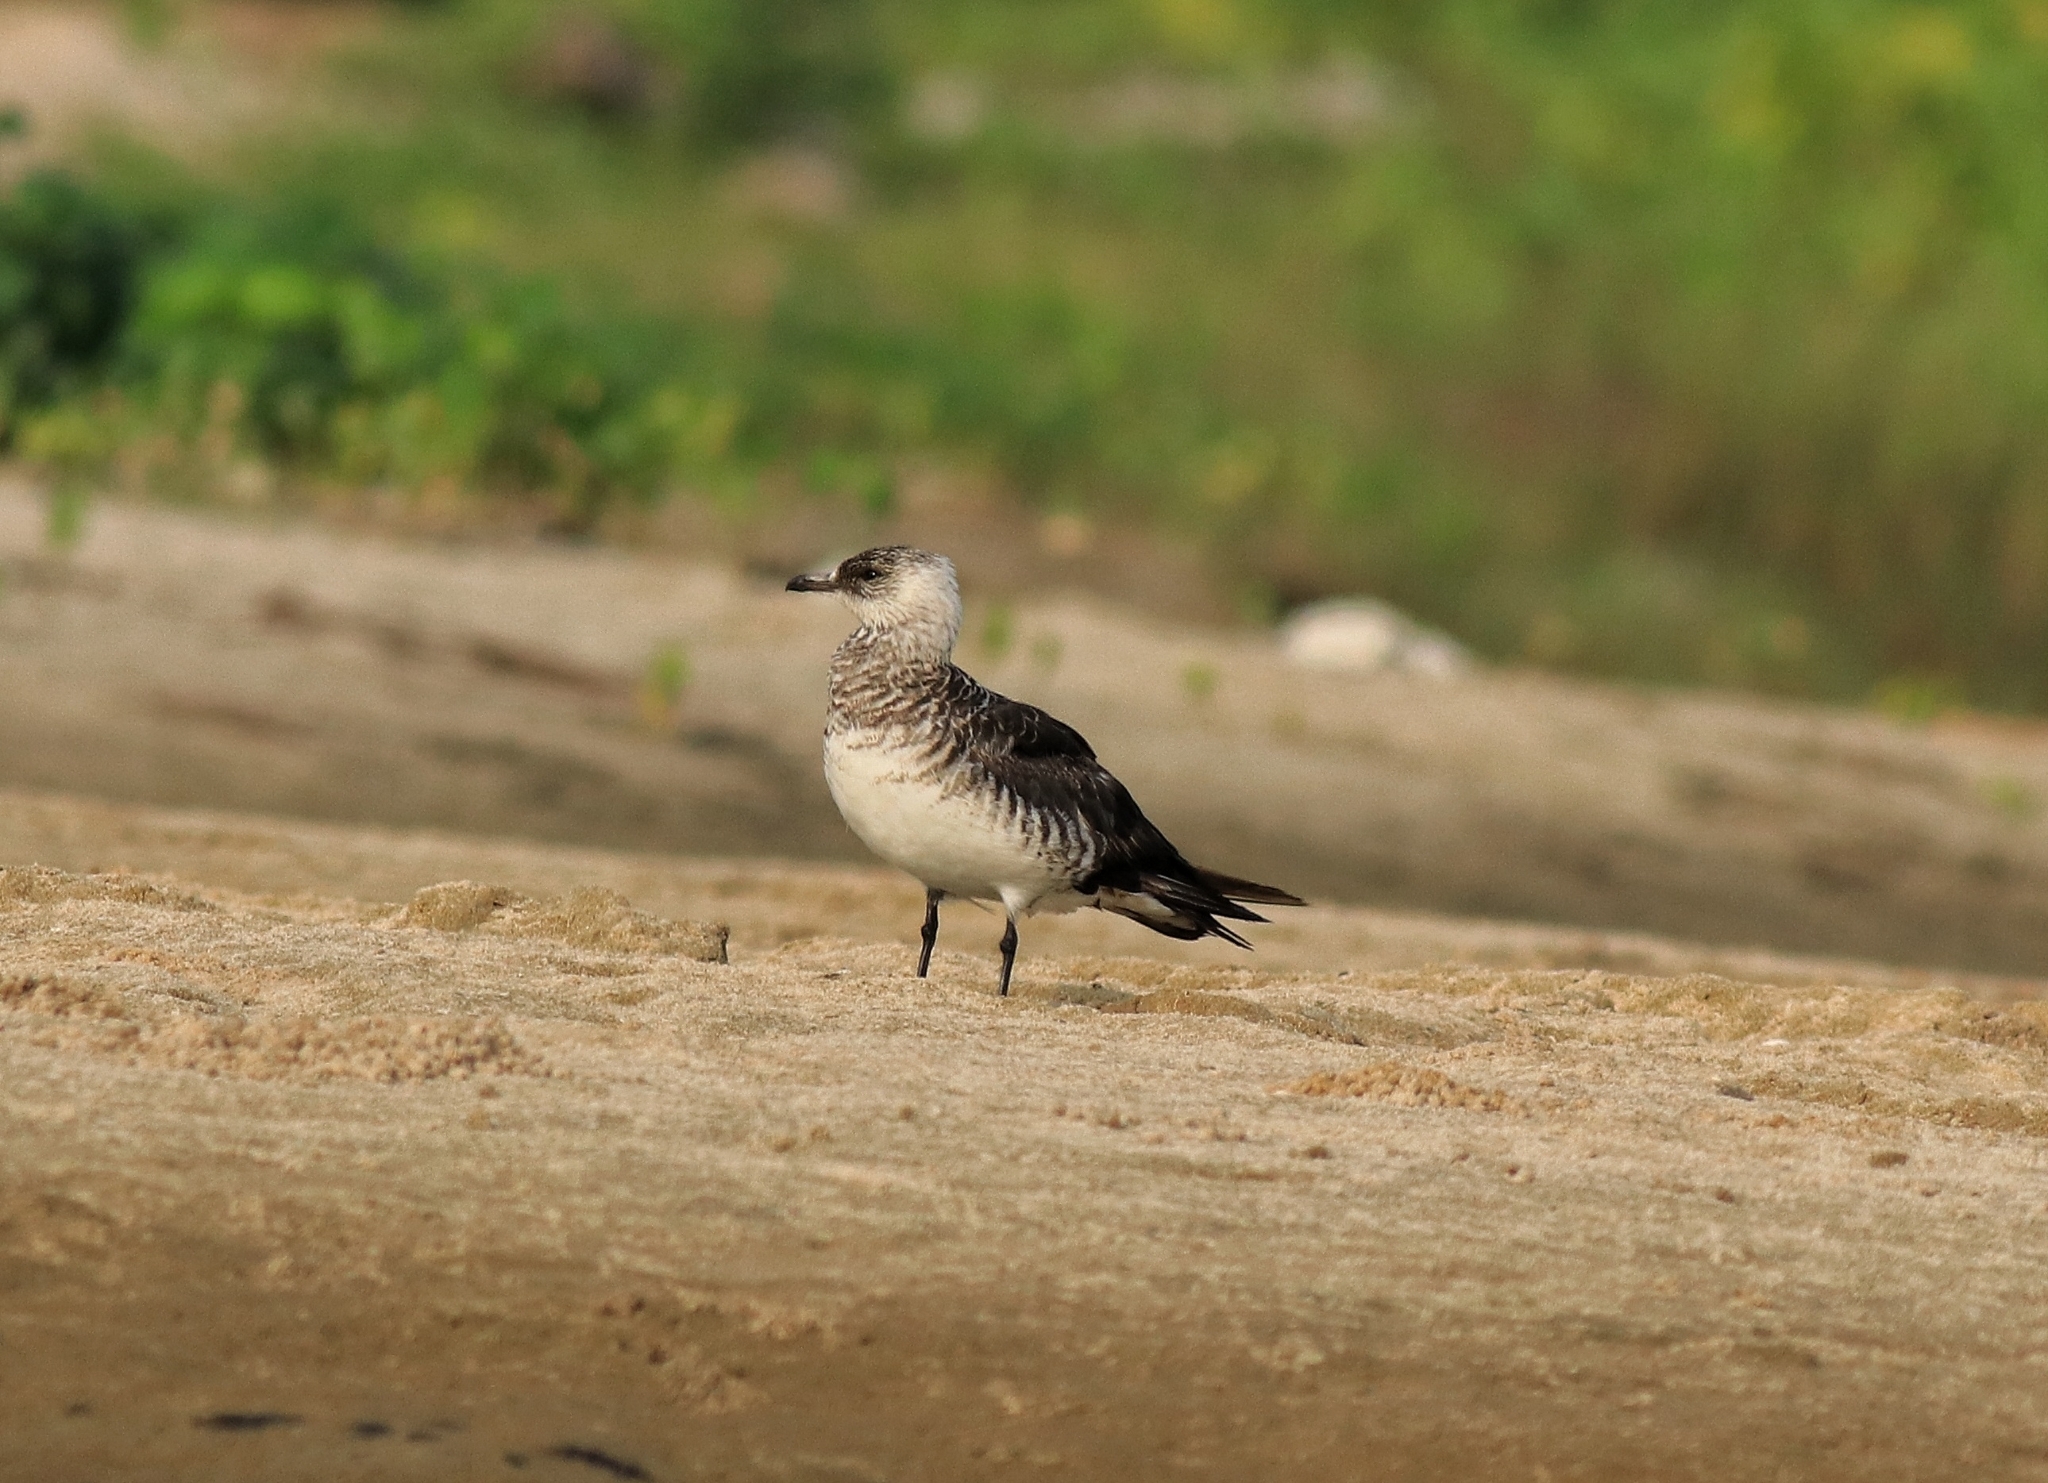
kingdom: Animalia
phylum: Chordata
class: Aves
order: Charadriiformes
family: Stercorariidae
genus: Stercorarius
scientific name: Stercorarius parasiticus
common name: Parasitic jaeger
